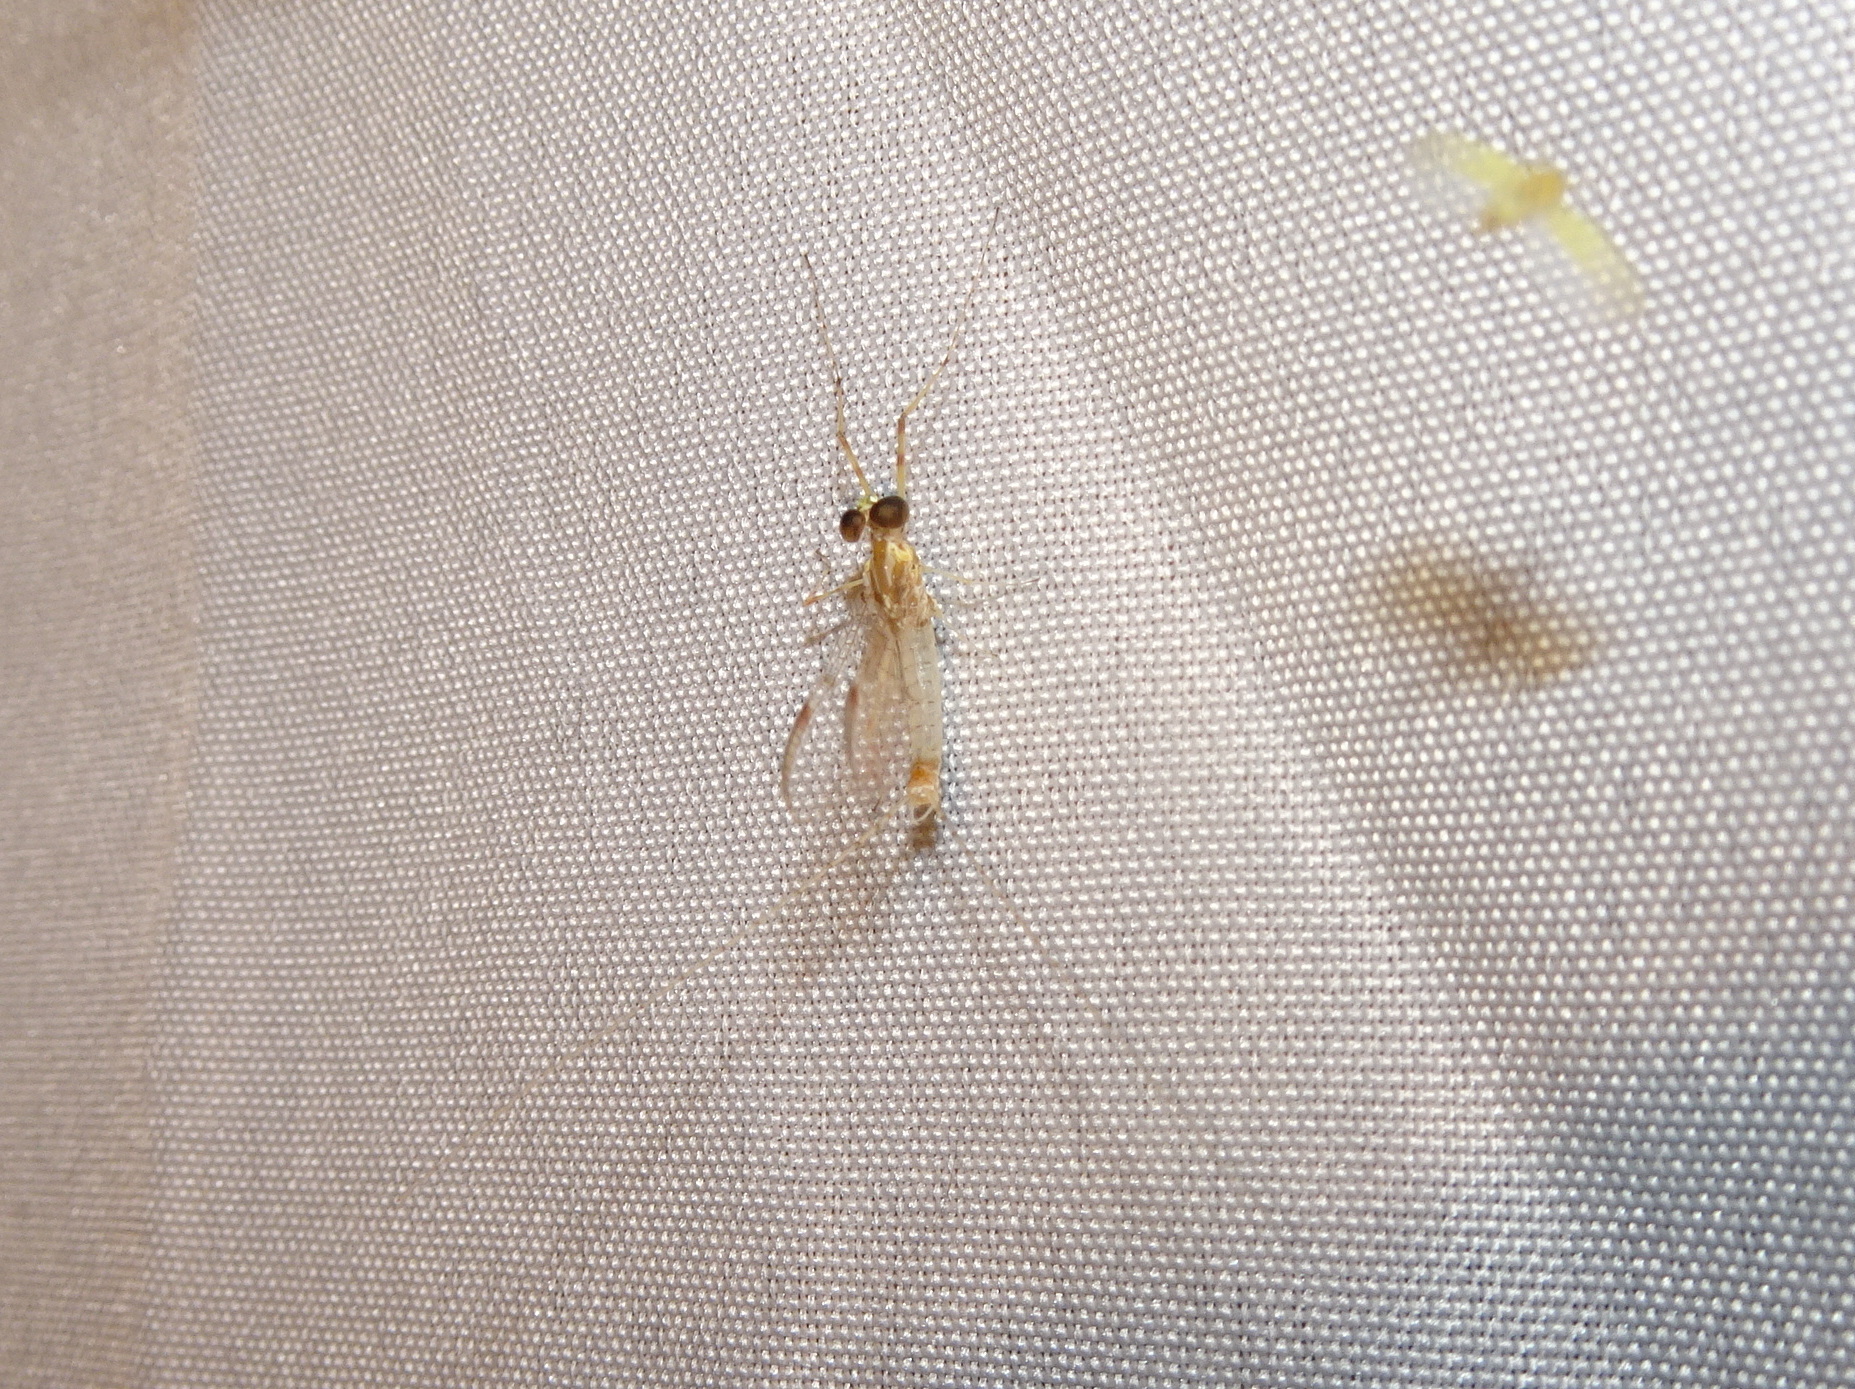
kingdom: Animalia
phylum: Arthropoda
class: Insecta
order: Ephemeroptera
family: Heptageniidae
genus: Stenonema
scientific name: Stenonema femoratum
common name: Dark cahill
